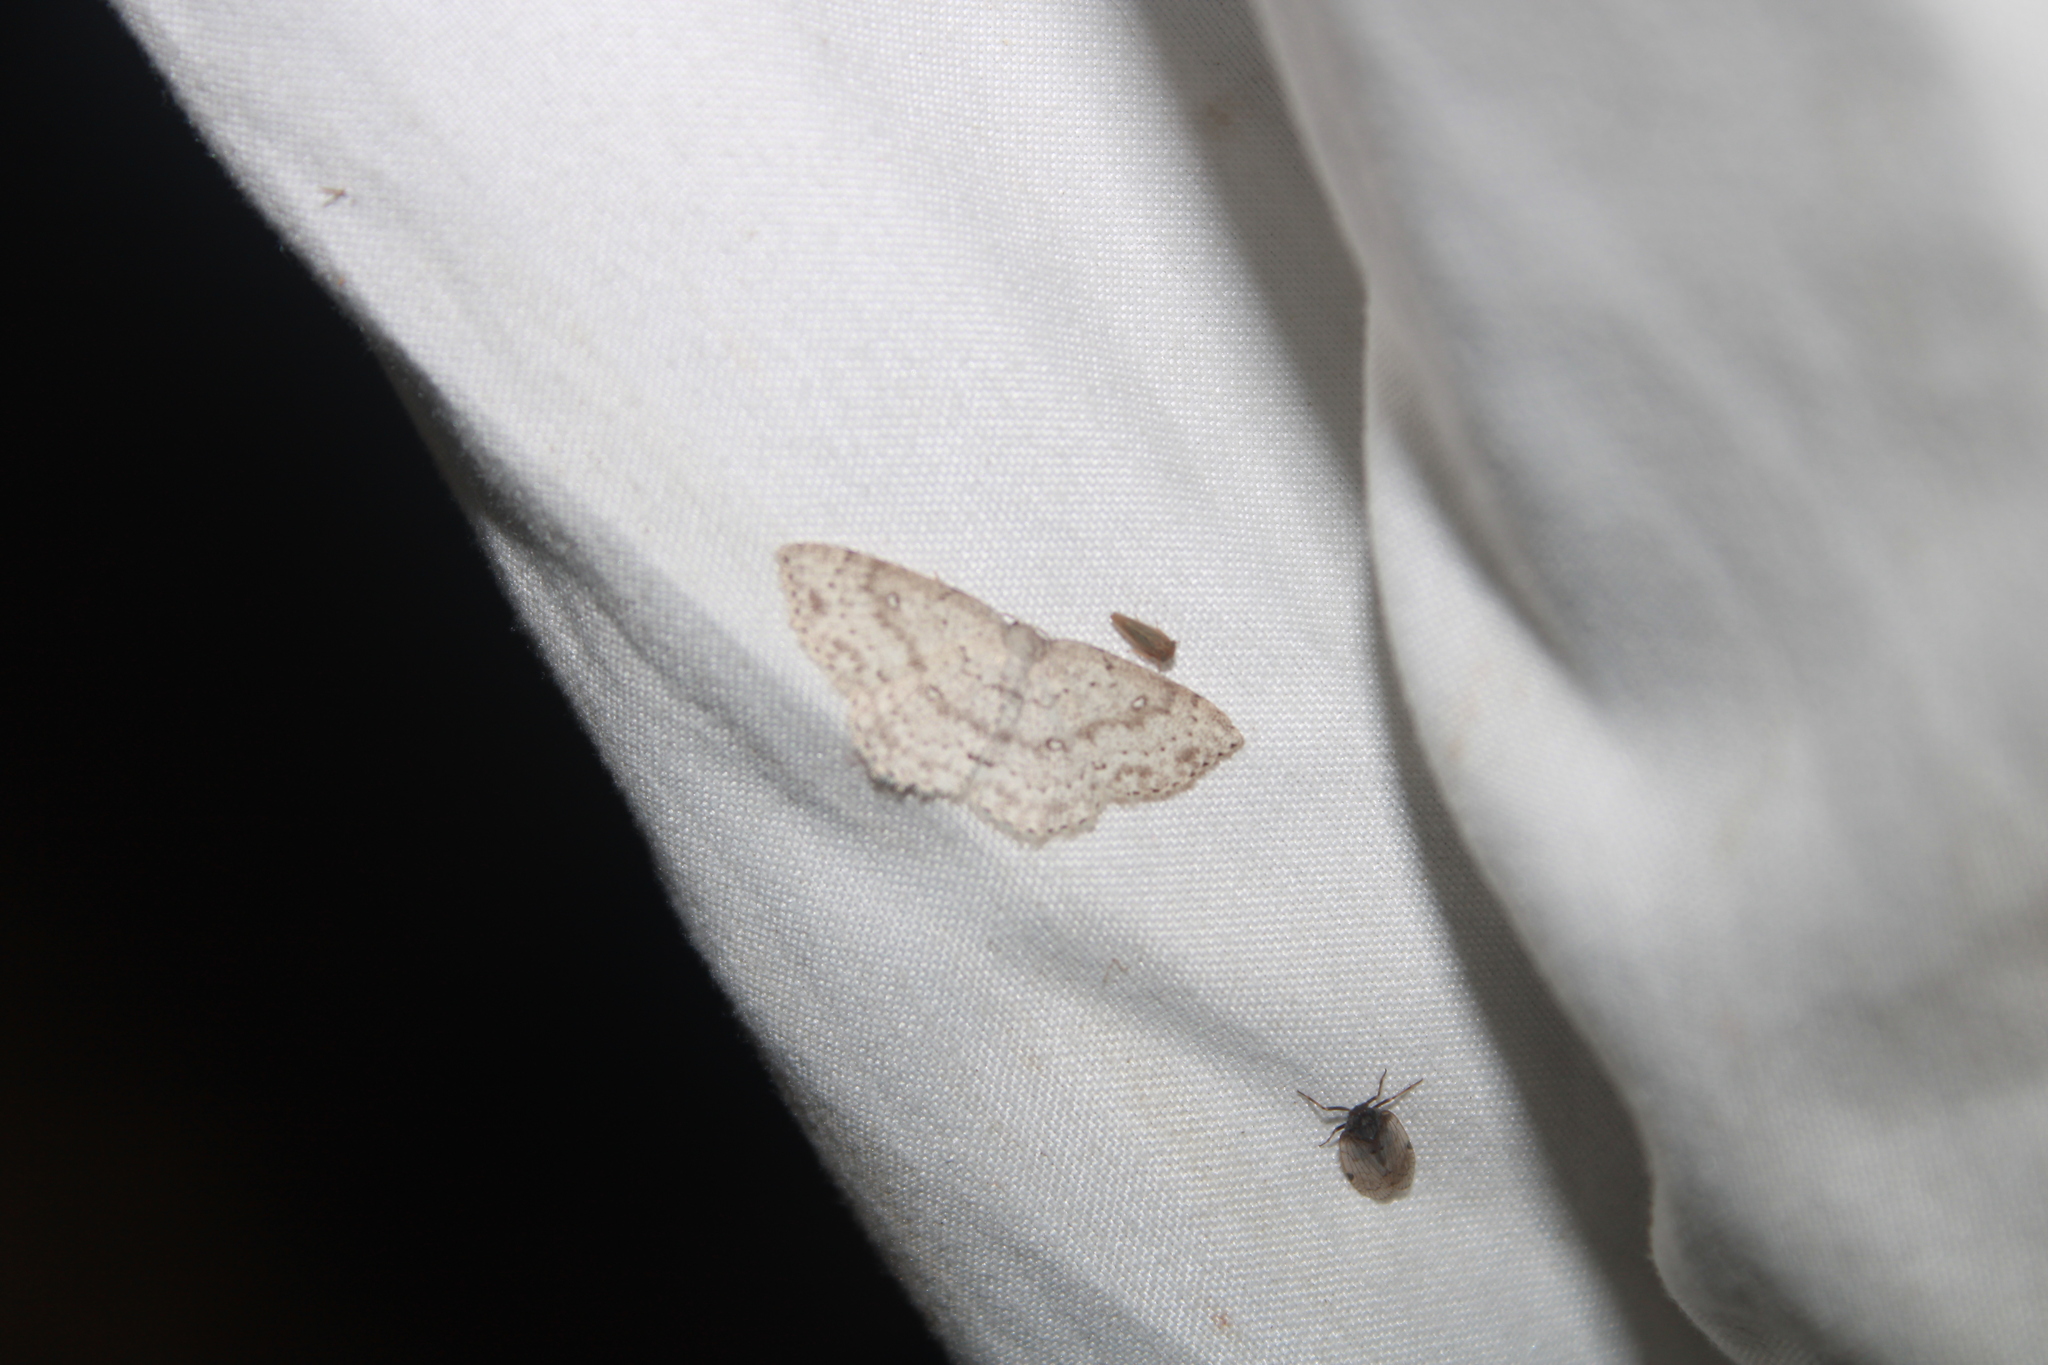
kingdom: Animalia
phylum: Arthropoda
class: Insecta
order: Lepidoptera
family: Geometridae
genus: Cyclophora
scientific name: Cyclophora pendulinaria
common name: Sweet fern geometer
